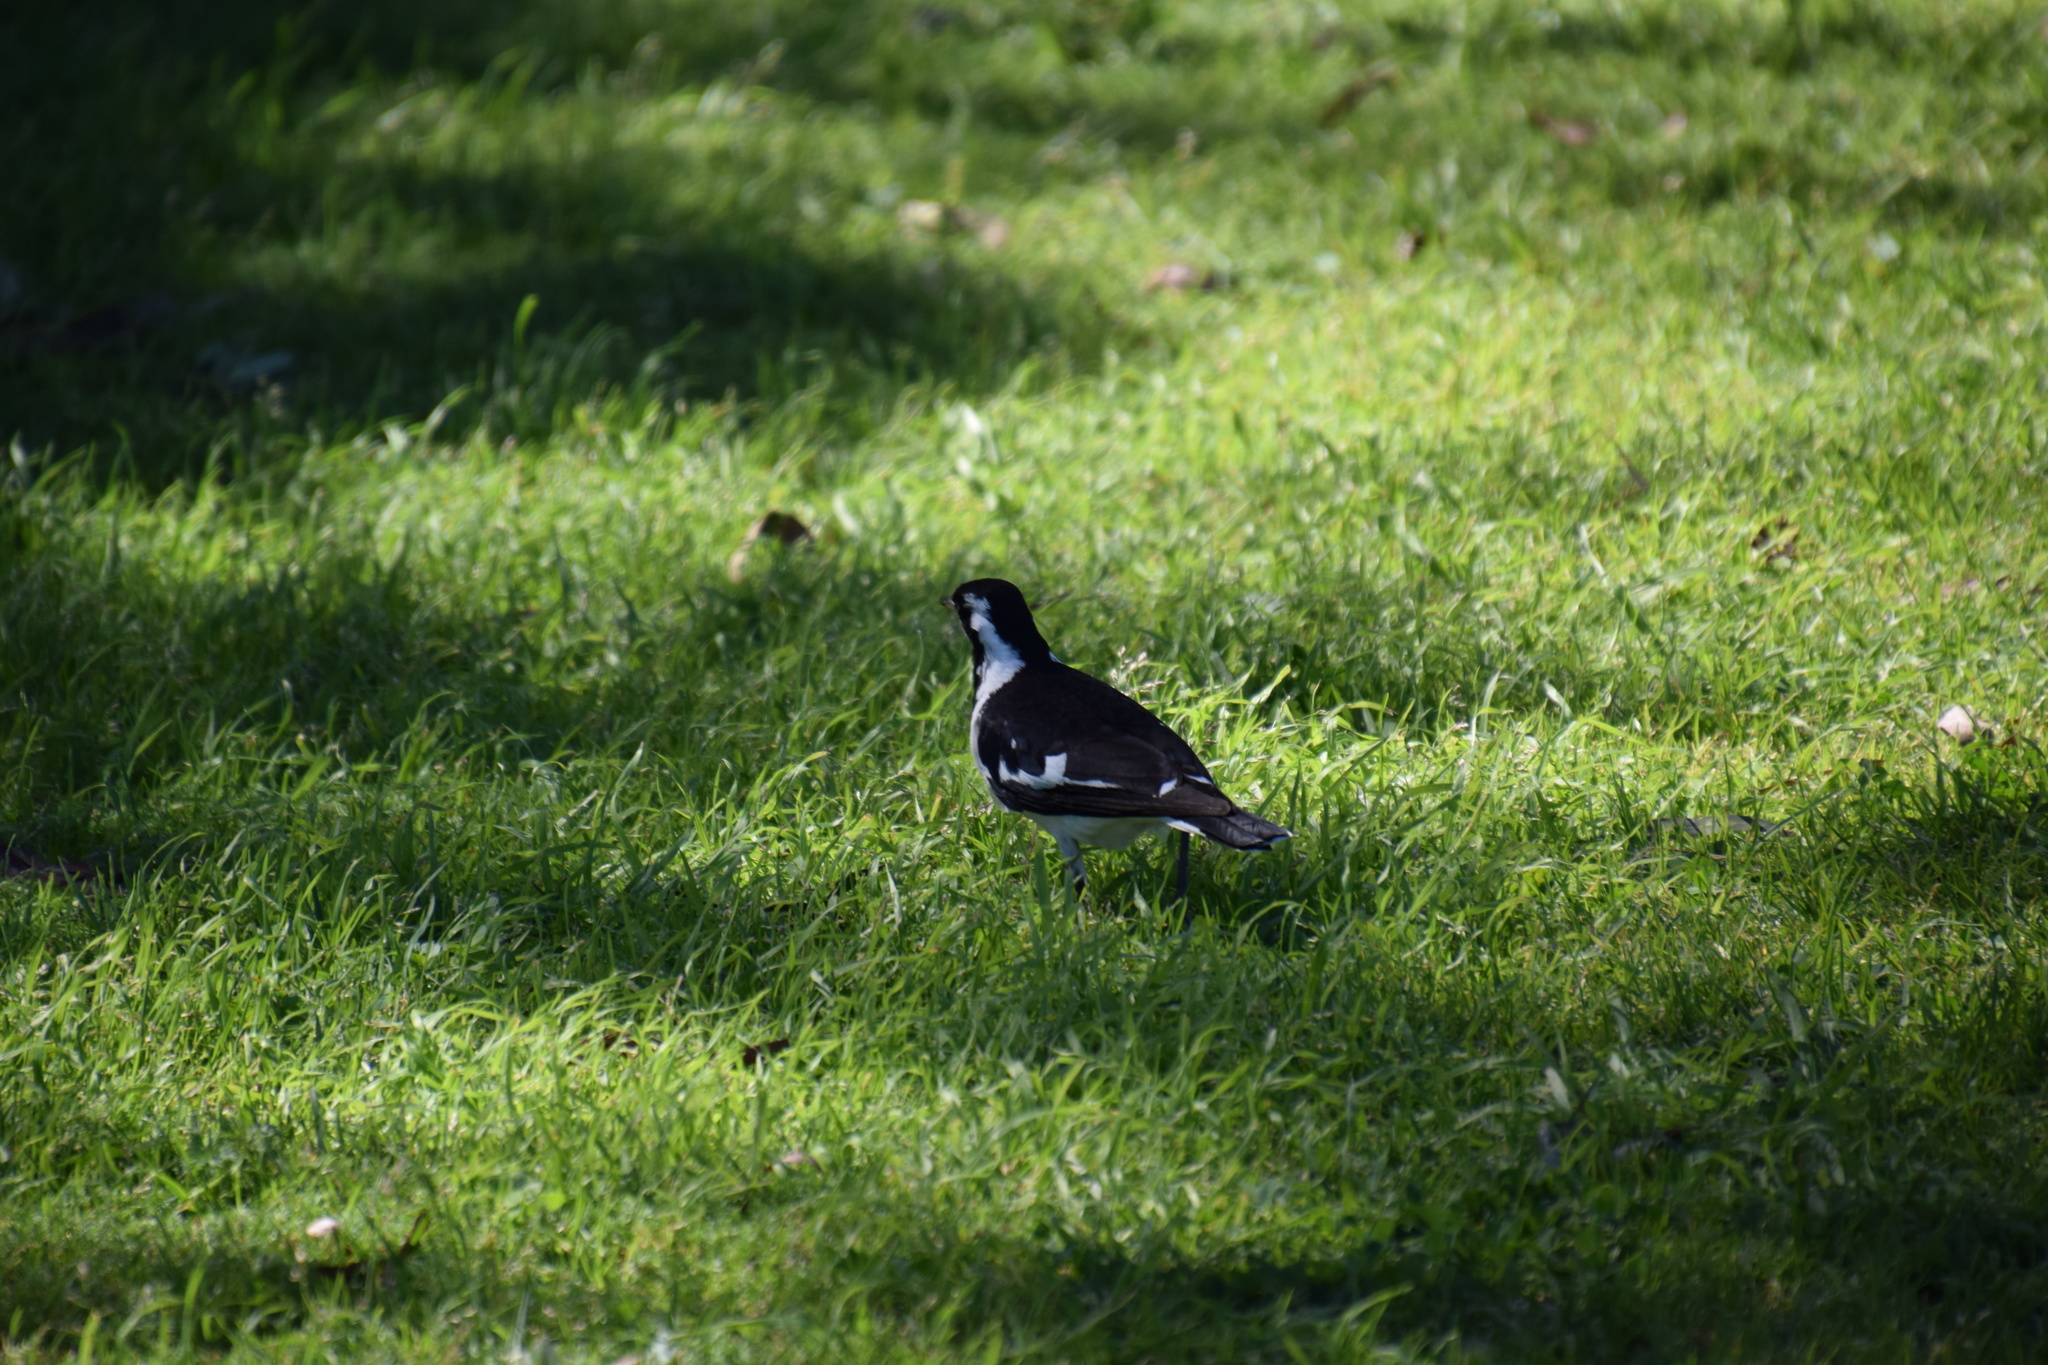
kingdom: Animalia
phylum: Chordata
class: Aves
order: Passeriformes
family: Monarchidae
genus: Grallina
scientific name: Grallina cyanoleuca
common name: Magpie-lark
